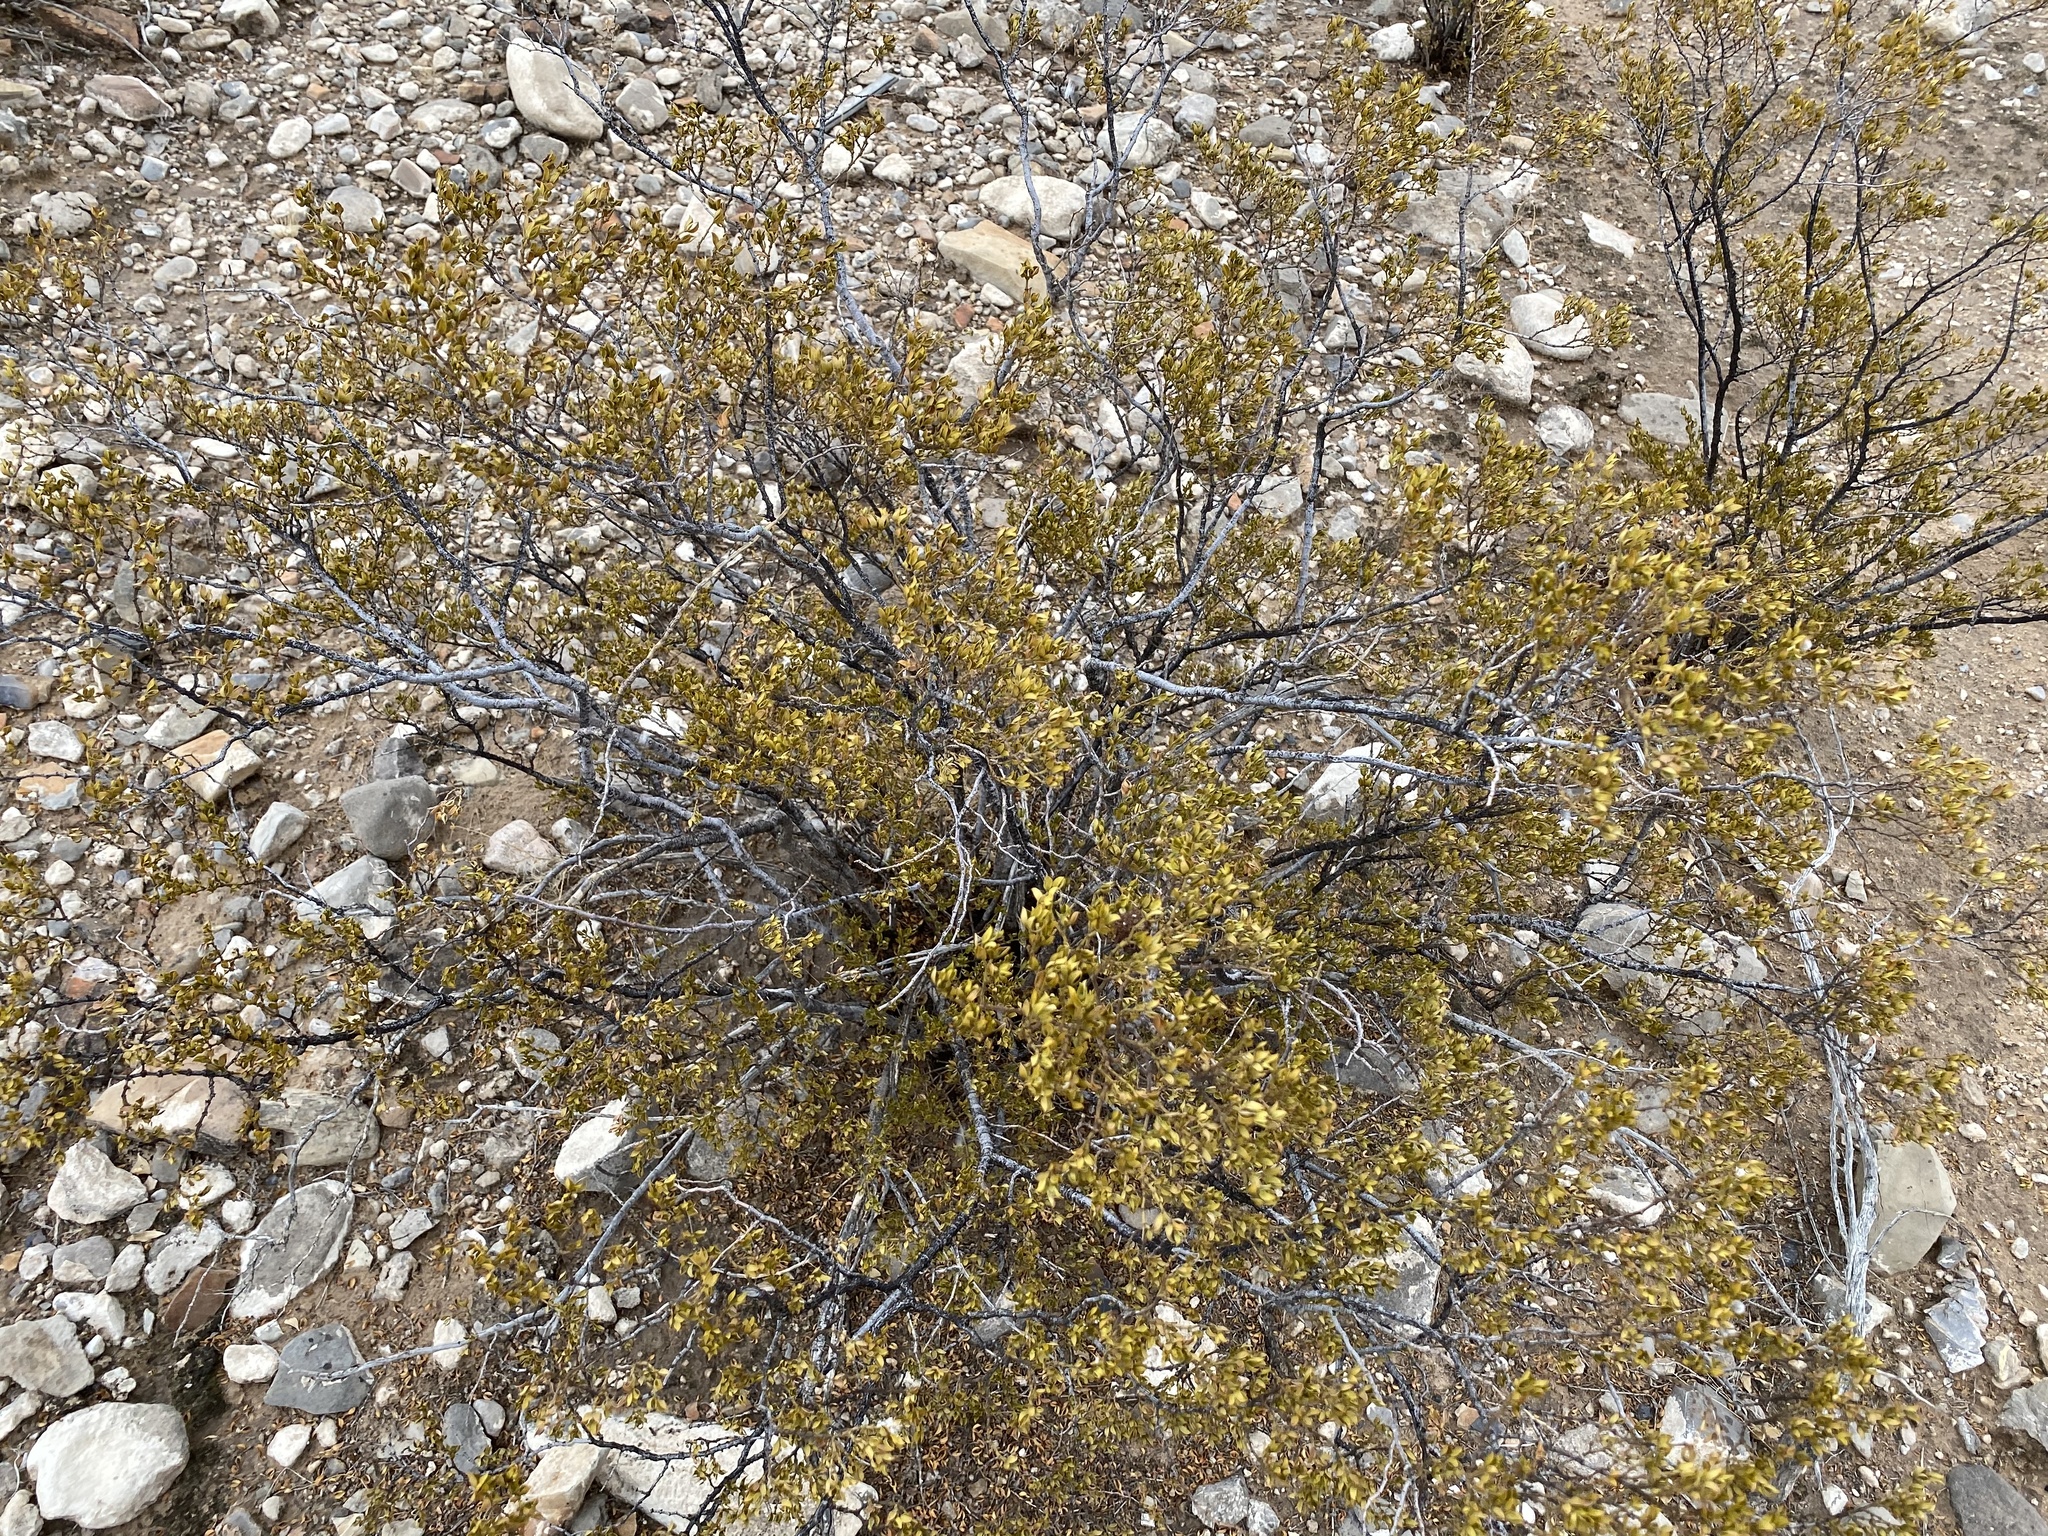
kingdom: Plantae
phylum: Tracheophyta
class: Magnoliopsida
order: Zygophyllales
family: Zygophyllaceae
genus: Larrea
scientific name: Larrea tridentata
